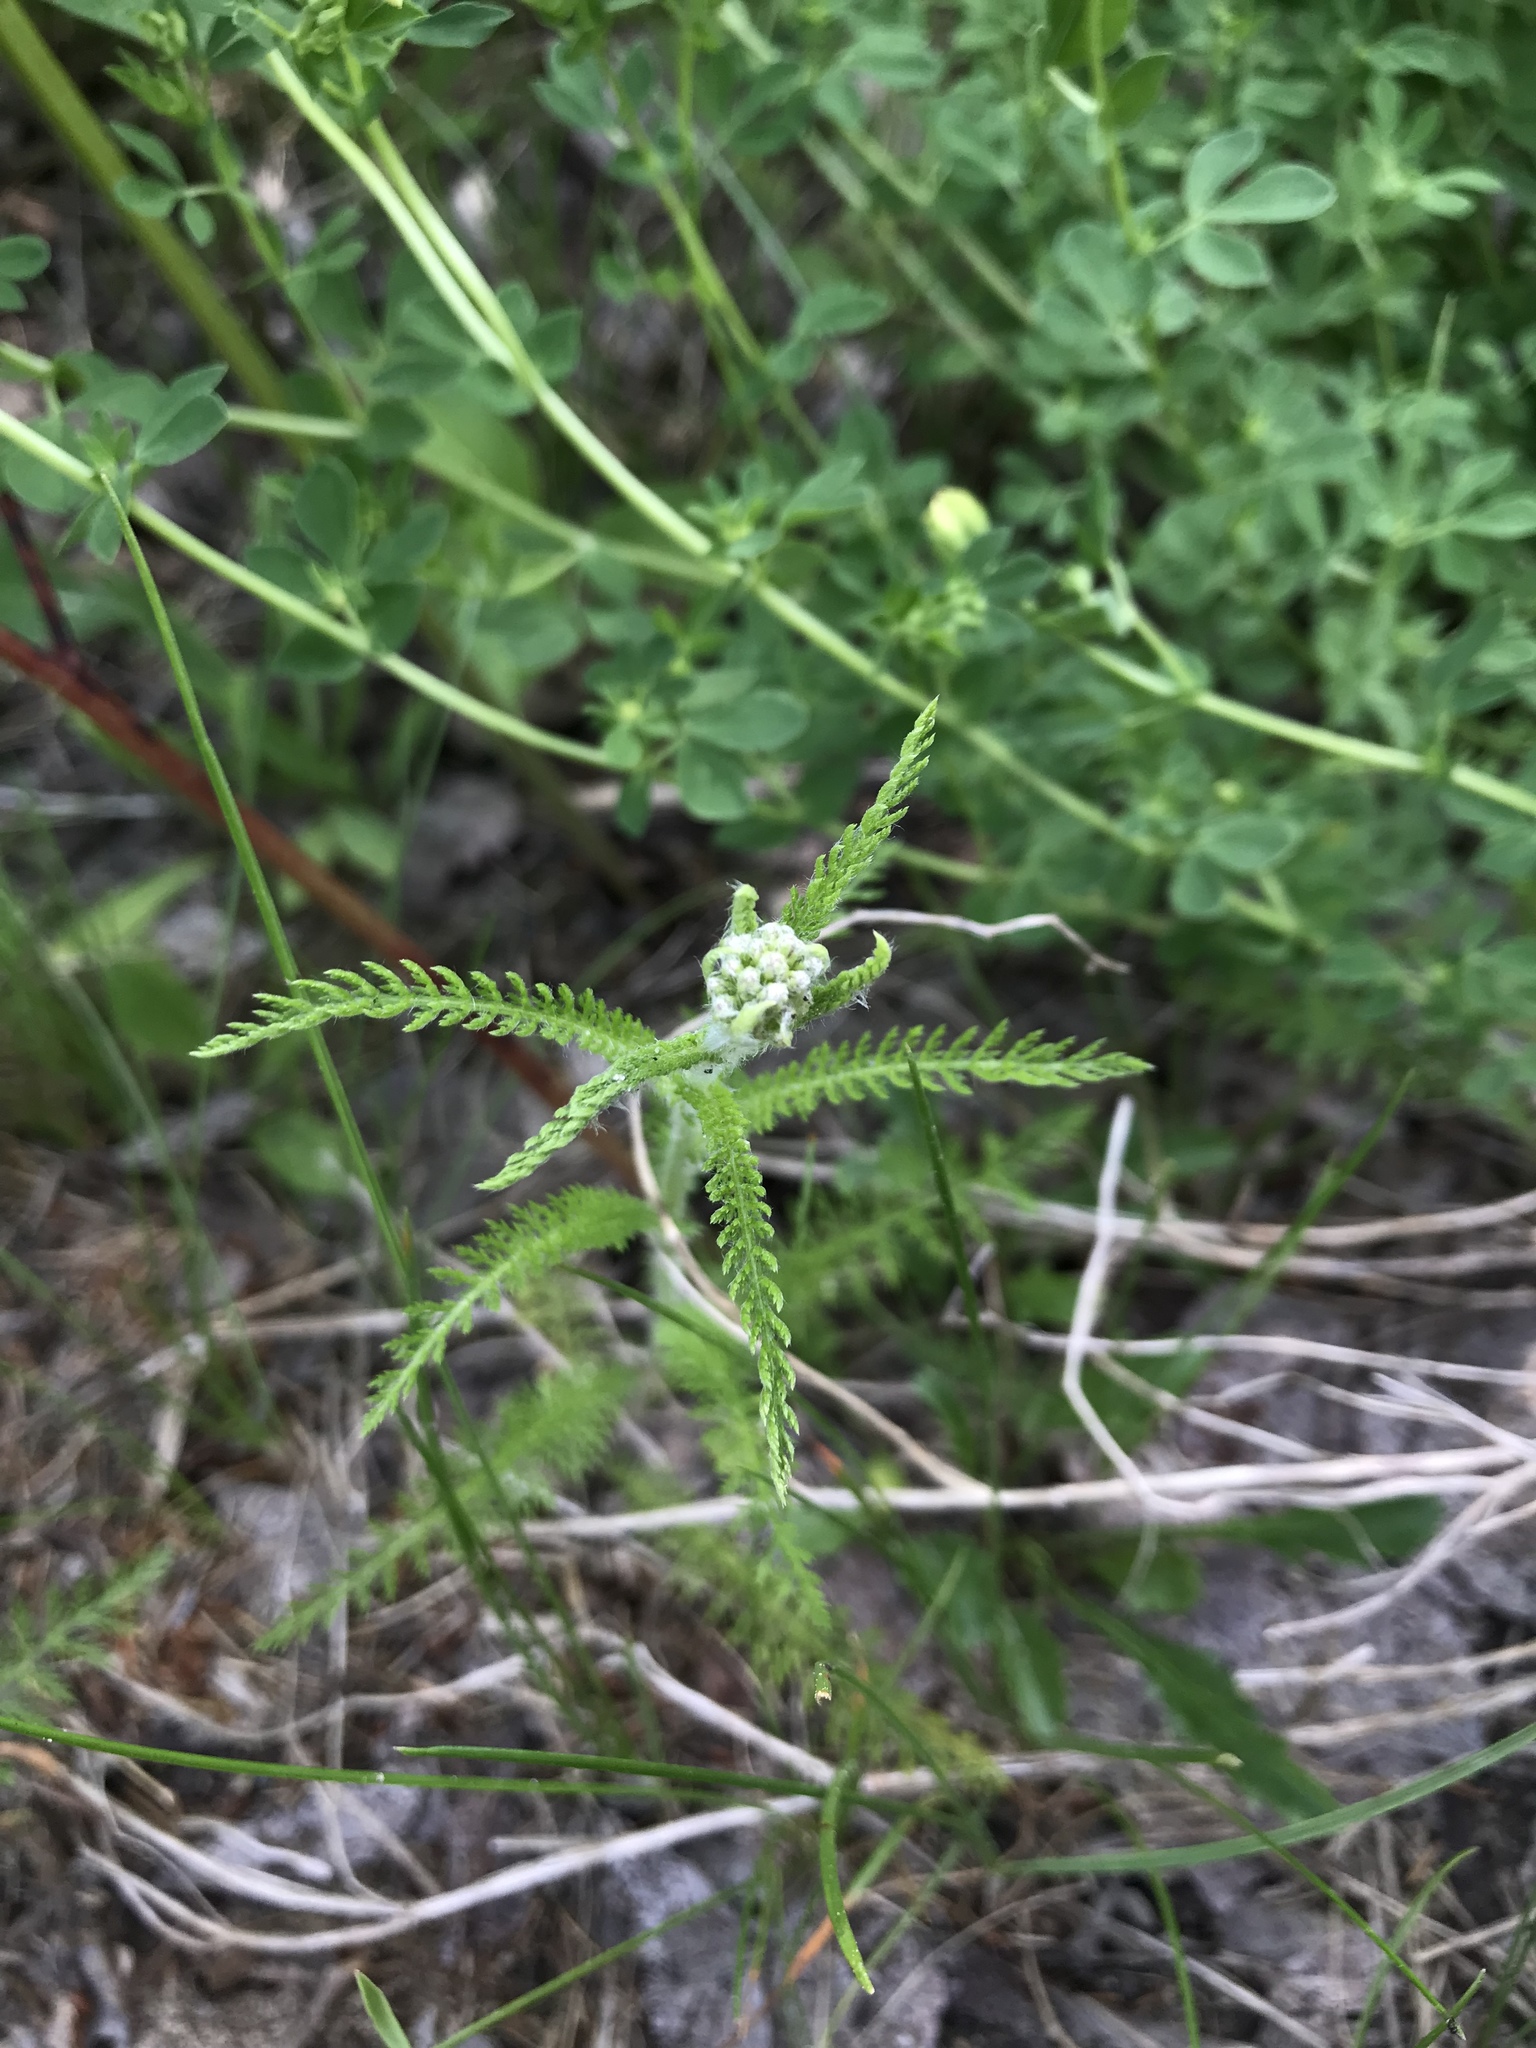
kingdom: Plantae
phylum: Tracheophyta
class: Magnoliopsida
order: Asterales
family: Asteraceae
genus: Achillea
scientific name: Achillea millefolium
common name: Yarrow
